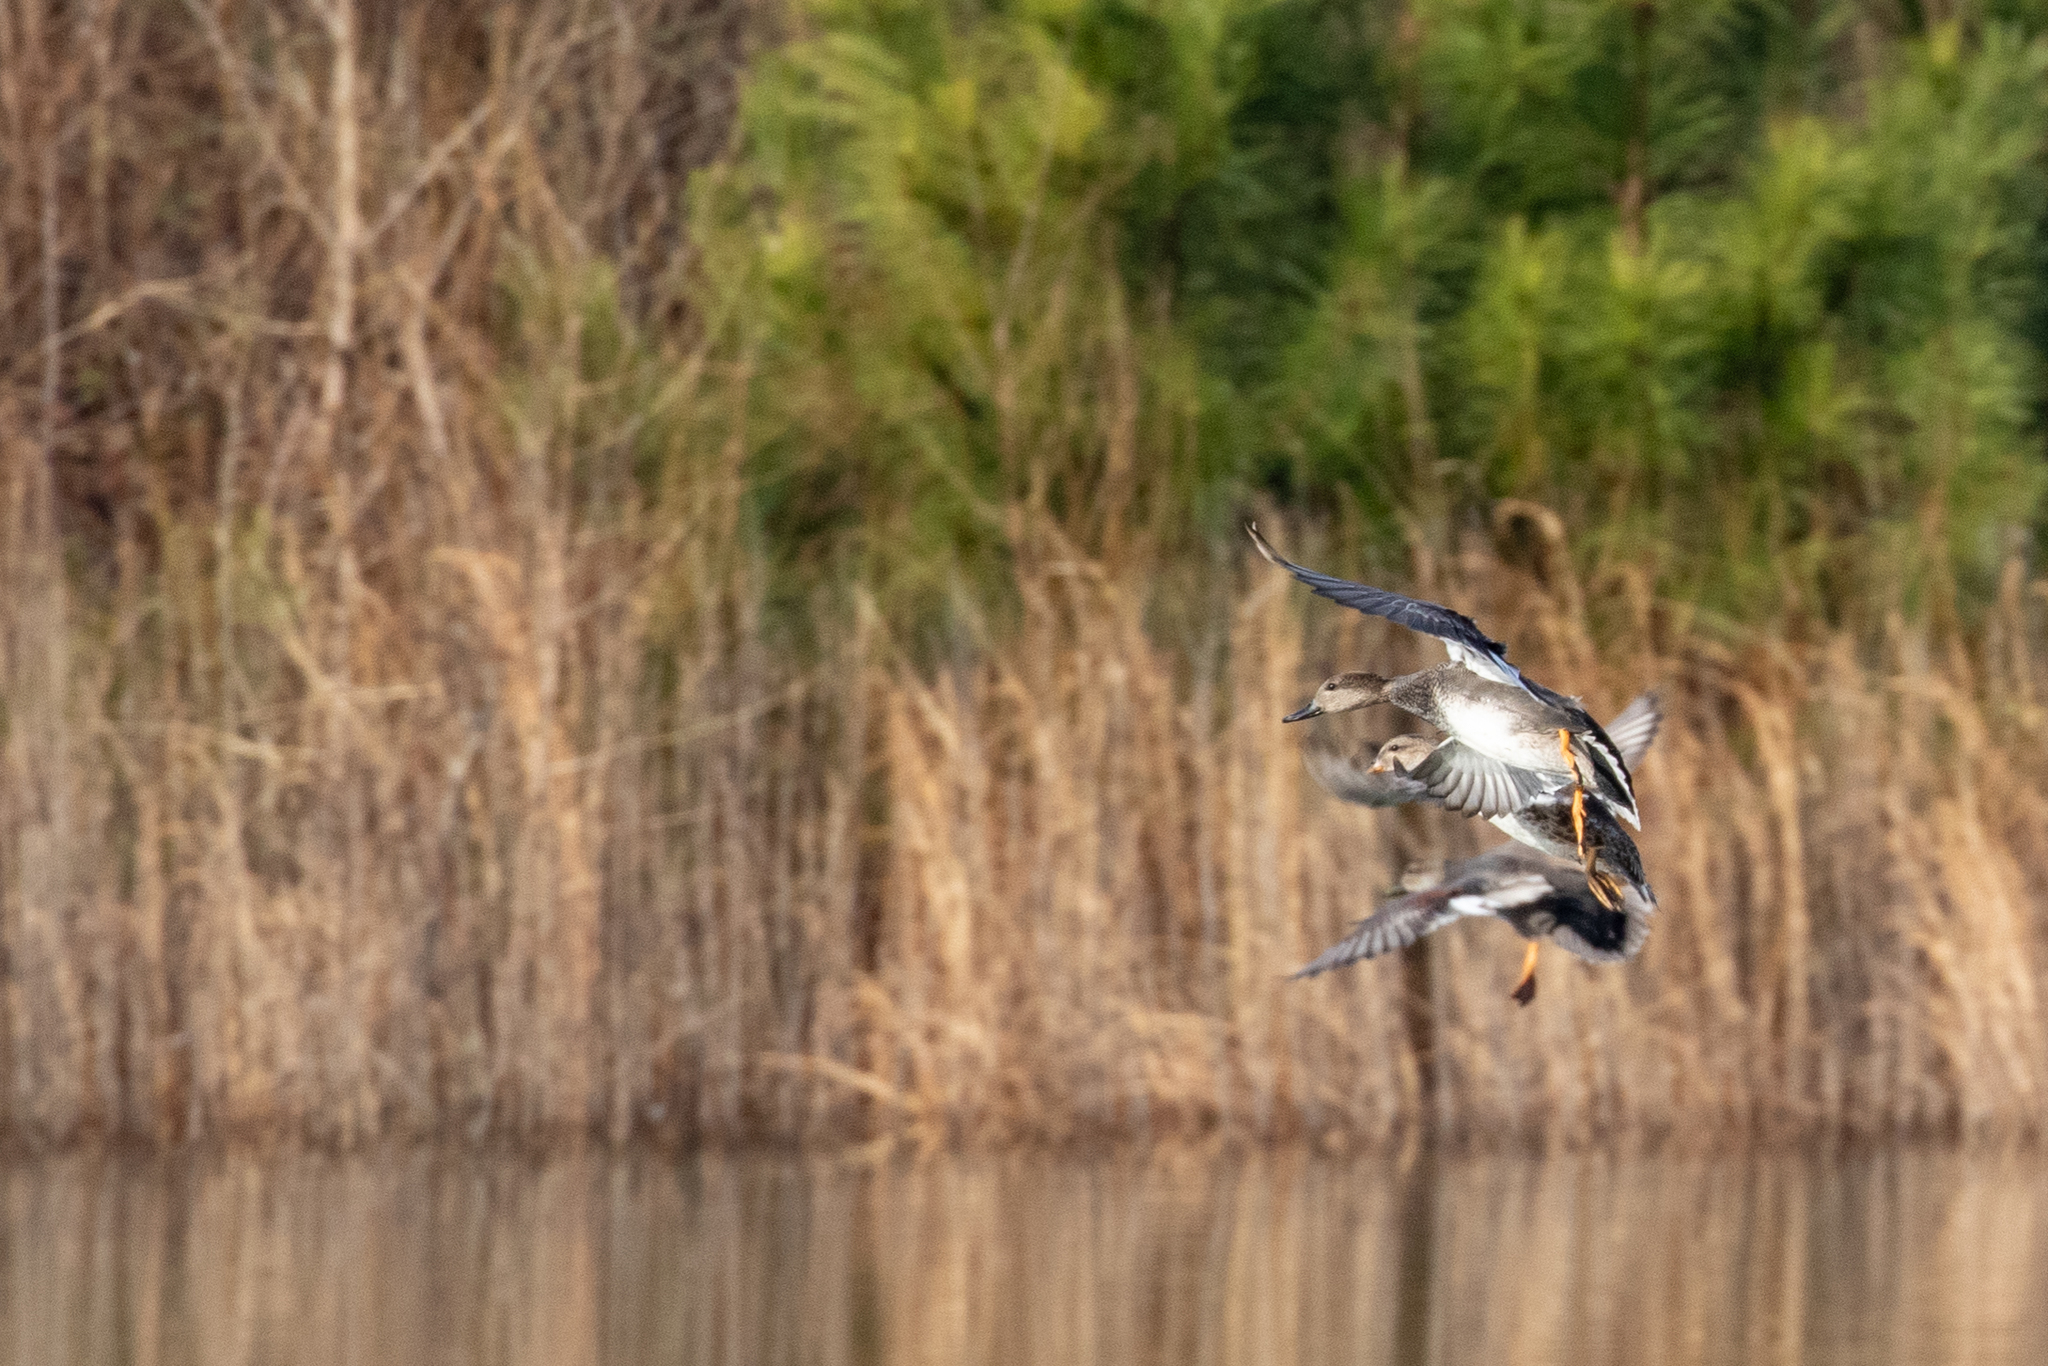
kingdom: Animalia
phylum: Chordata
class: Aves
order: Anseriformes
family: Anatidae
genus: Mareca
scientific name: Mareca strepera
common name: Gadwall
